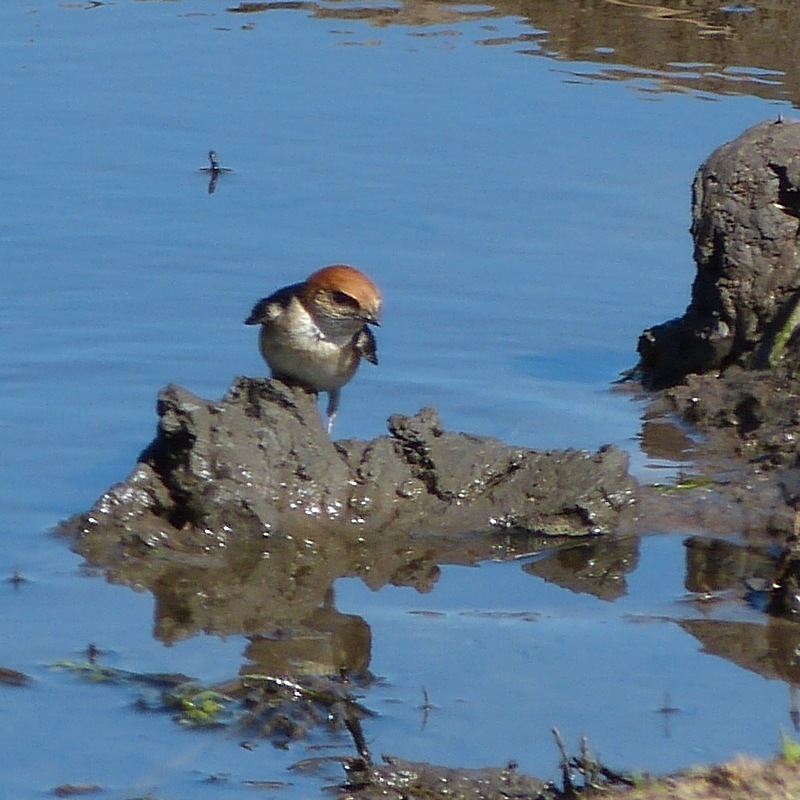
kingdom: Animalia
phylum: Chordata
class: Aves
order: Passeriformes
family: Hirundinidae
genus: Petrochelidon
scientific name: Petrochelidon ariel
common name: Fairy martin
